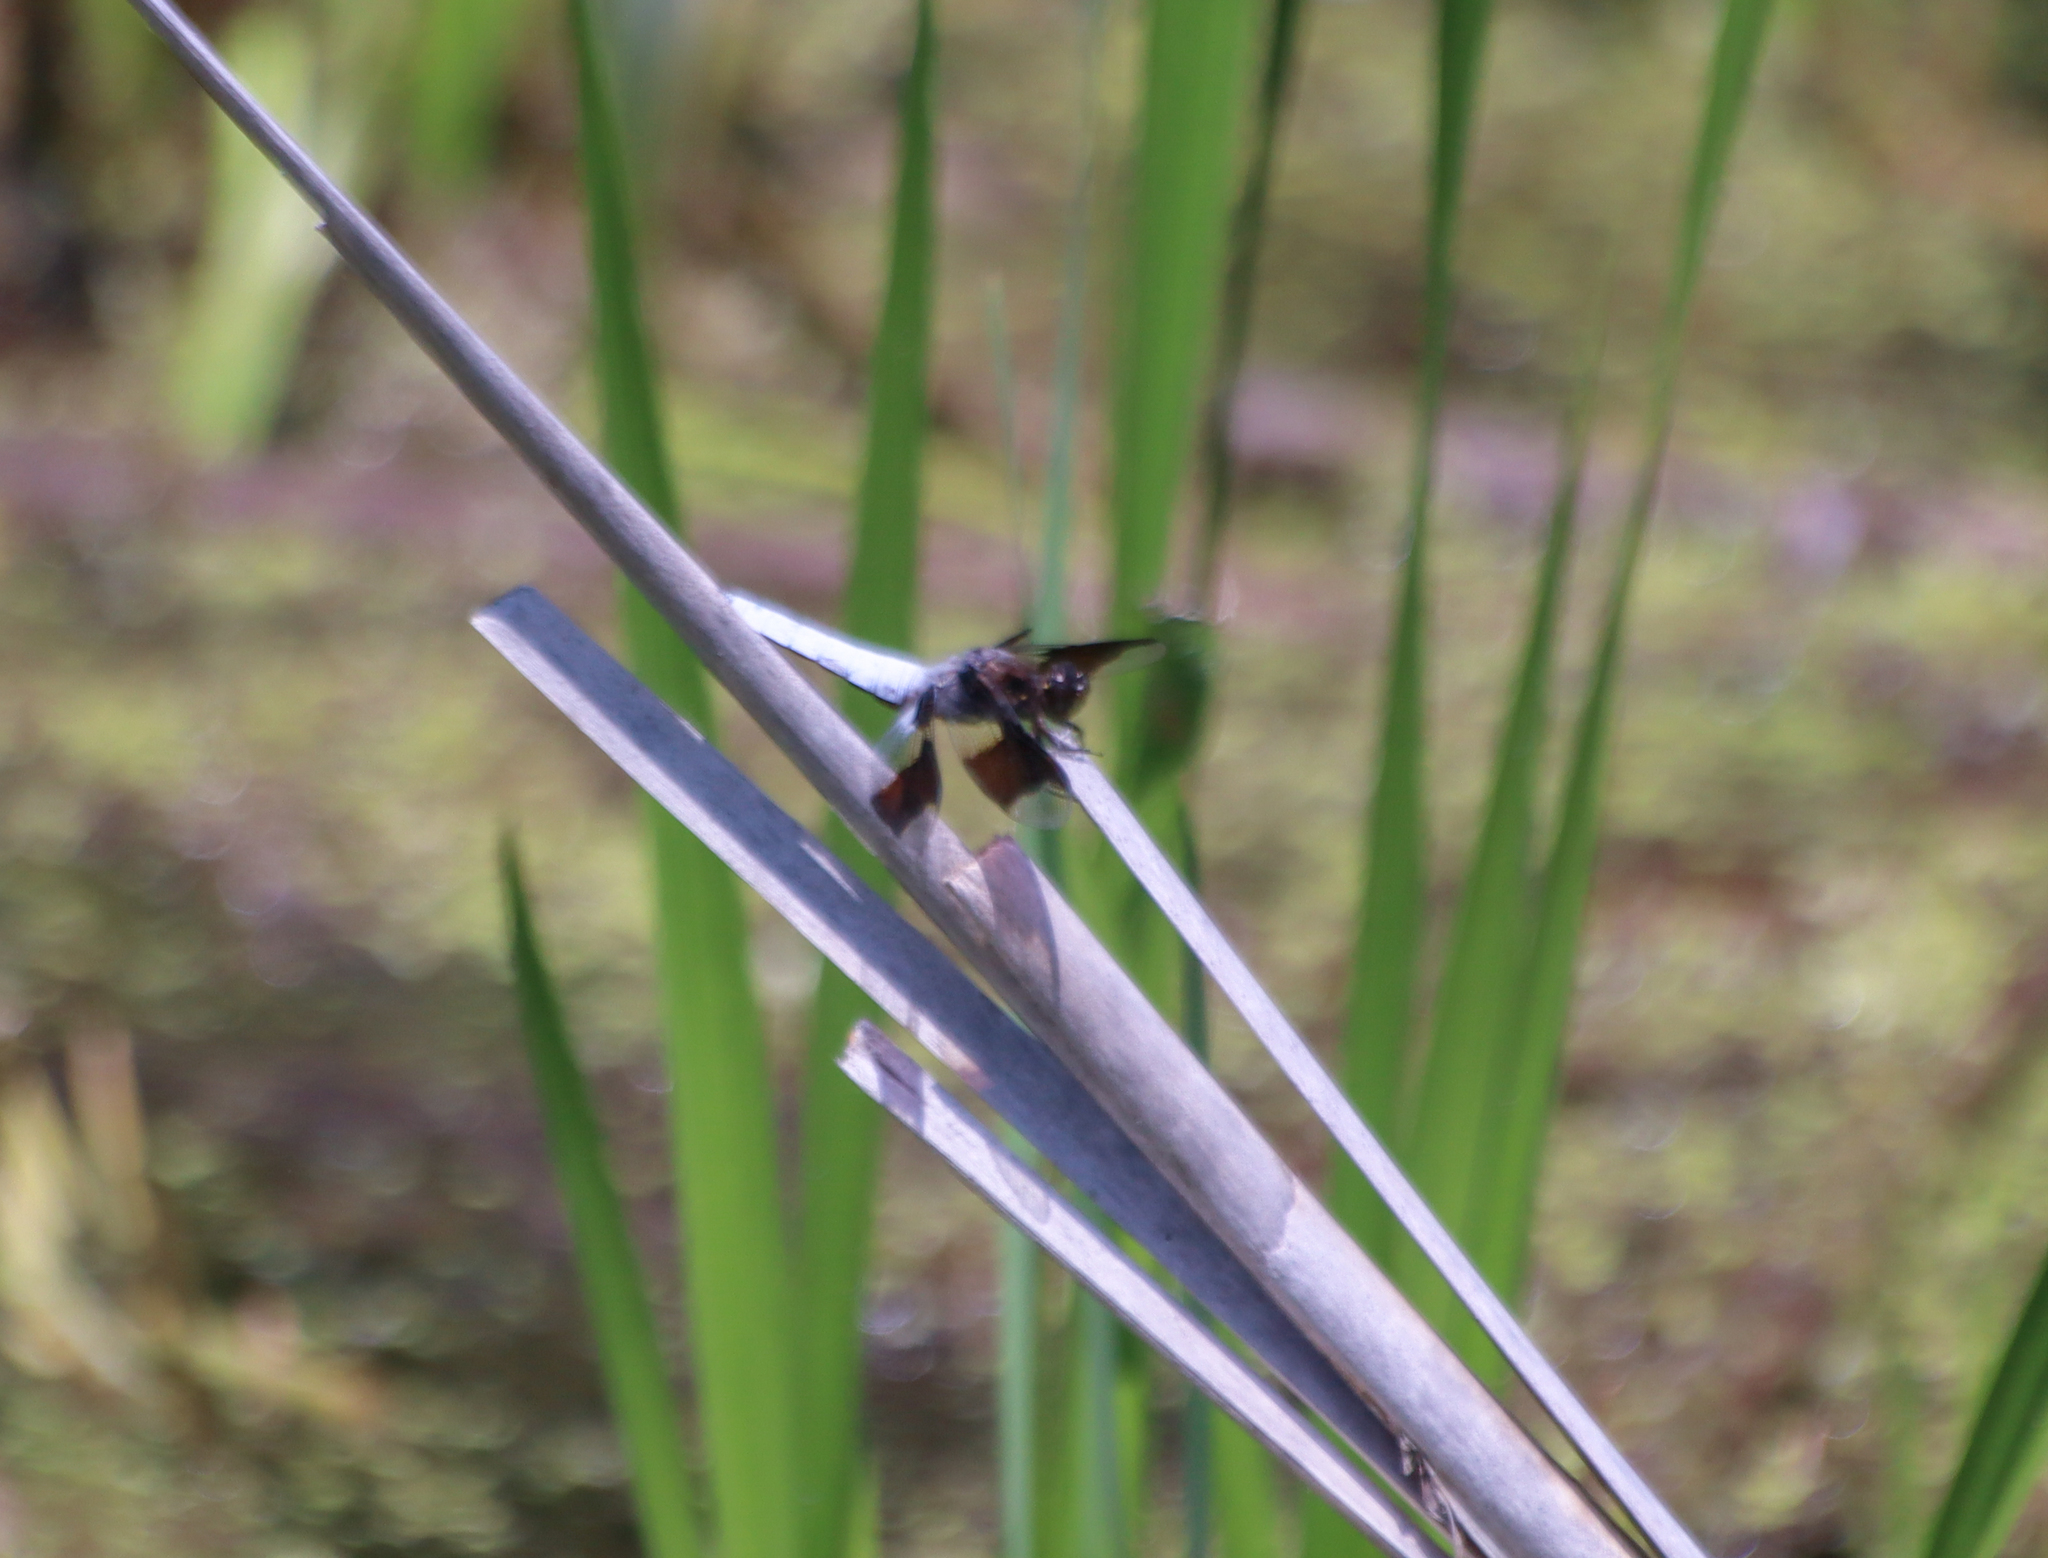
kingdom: Animalia
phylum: Arthropoda
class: Insecta
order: Odonata
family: Libellulidae
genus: Plathemis
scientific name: Plathemis lydia
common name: Common whitetail
